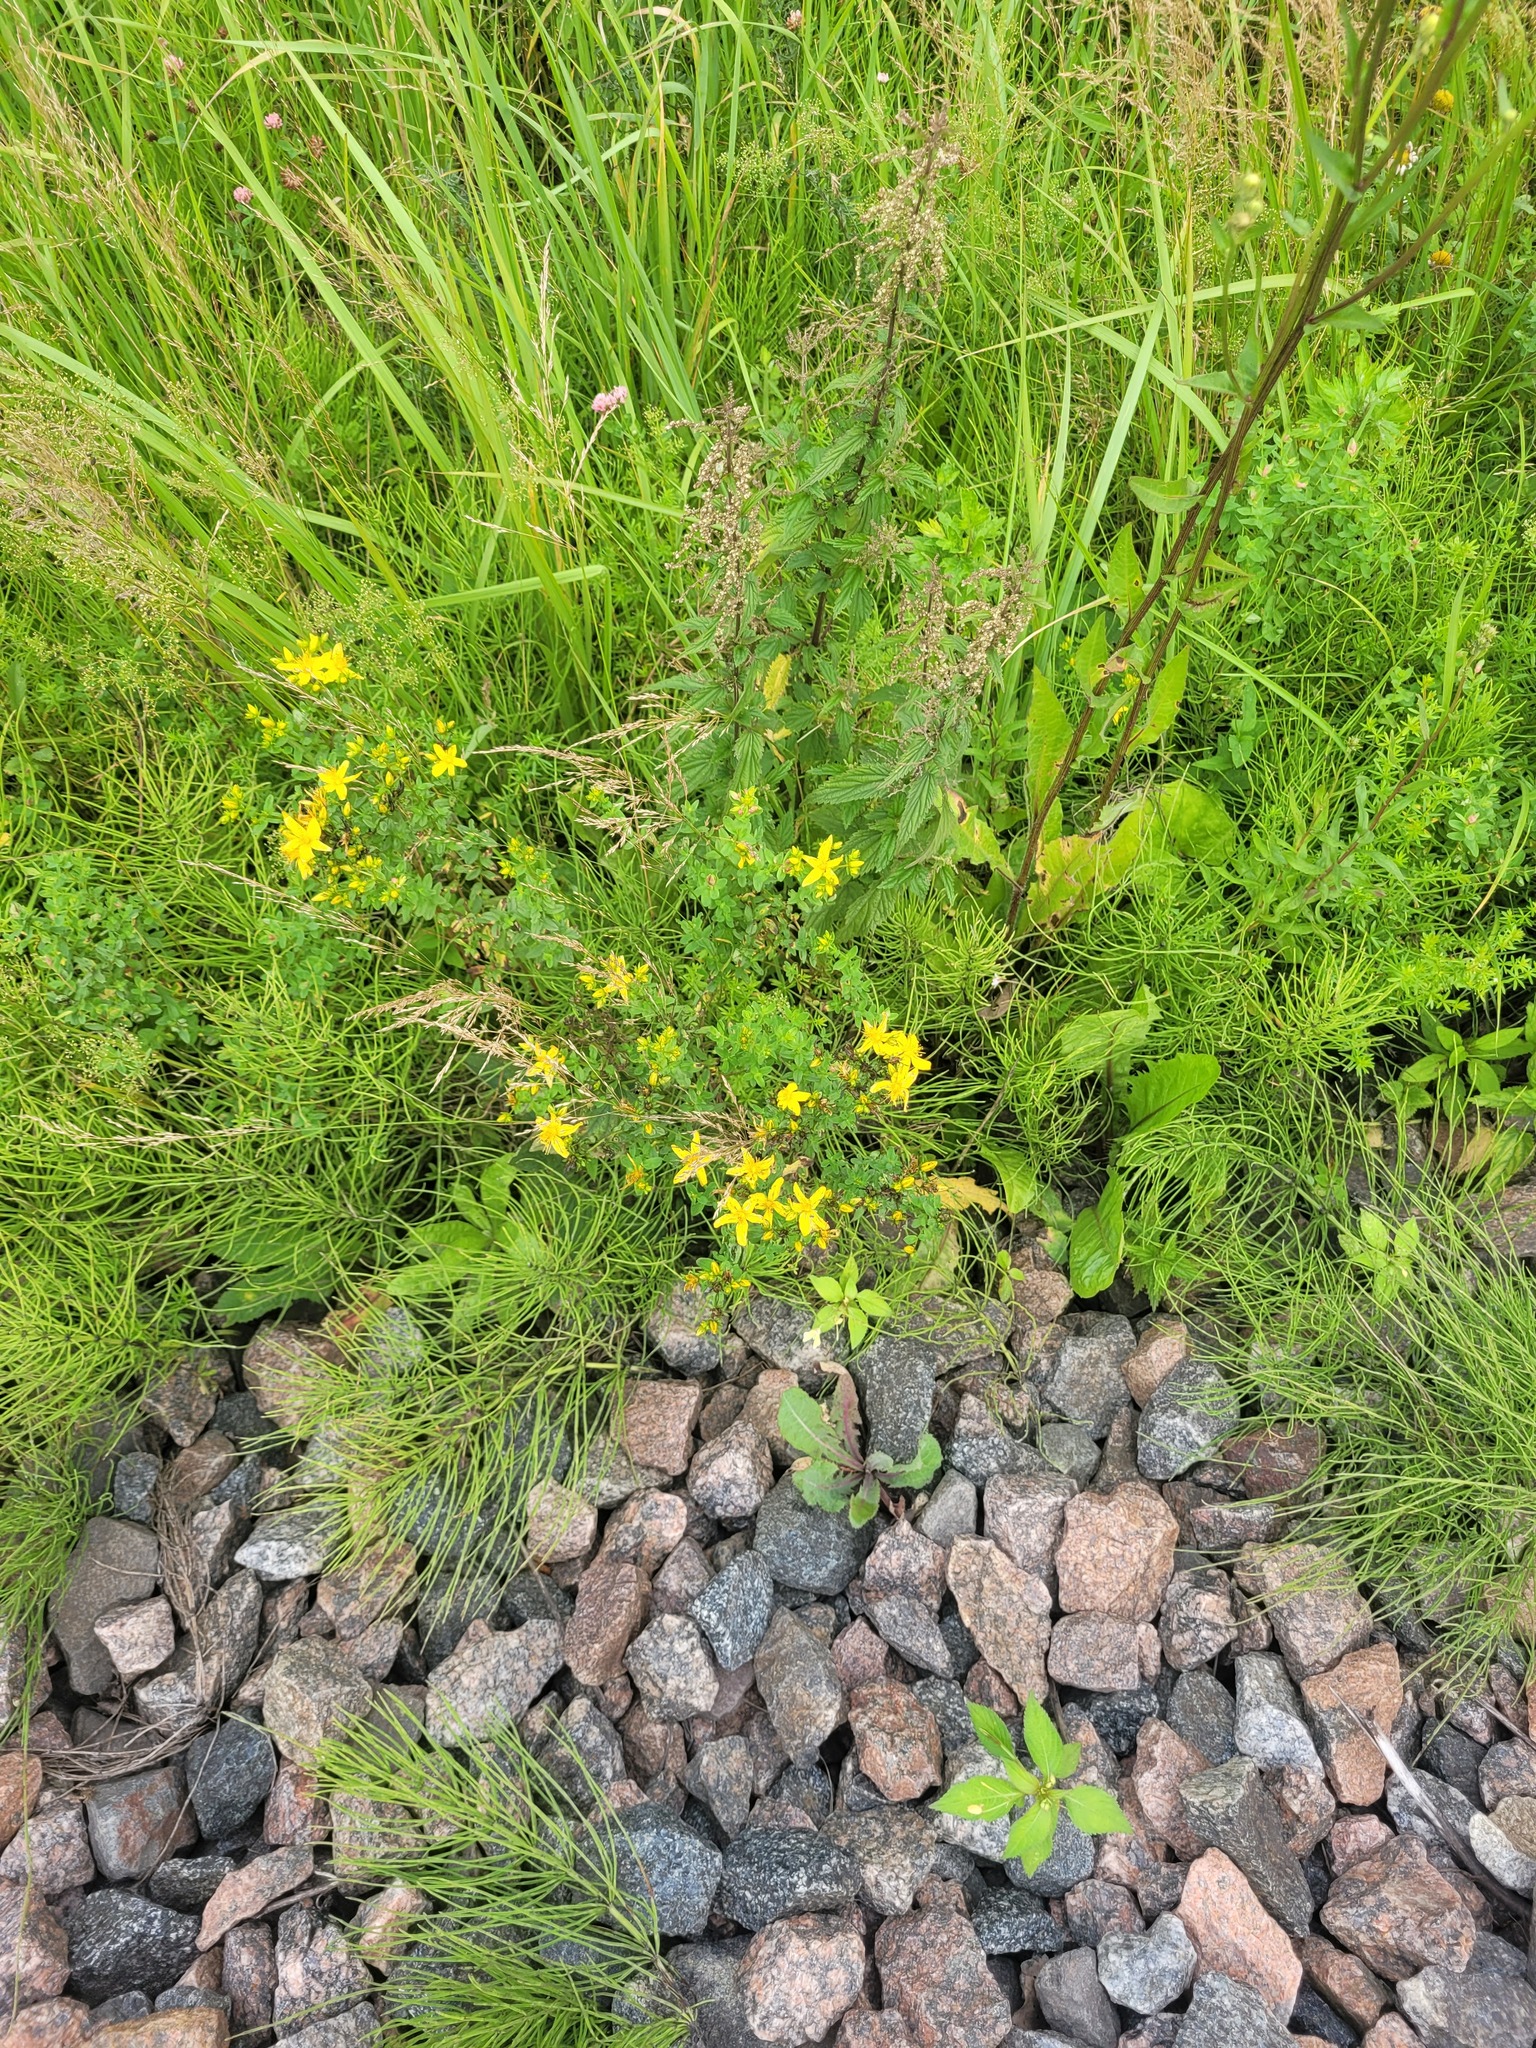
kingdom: Plantae
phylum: Tracheophyta
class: Magnoliopsida
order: Malpighiales
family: Hypericaceae
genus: Hypericum
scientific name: Hypericum perforatum
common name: Common st. johnswort
